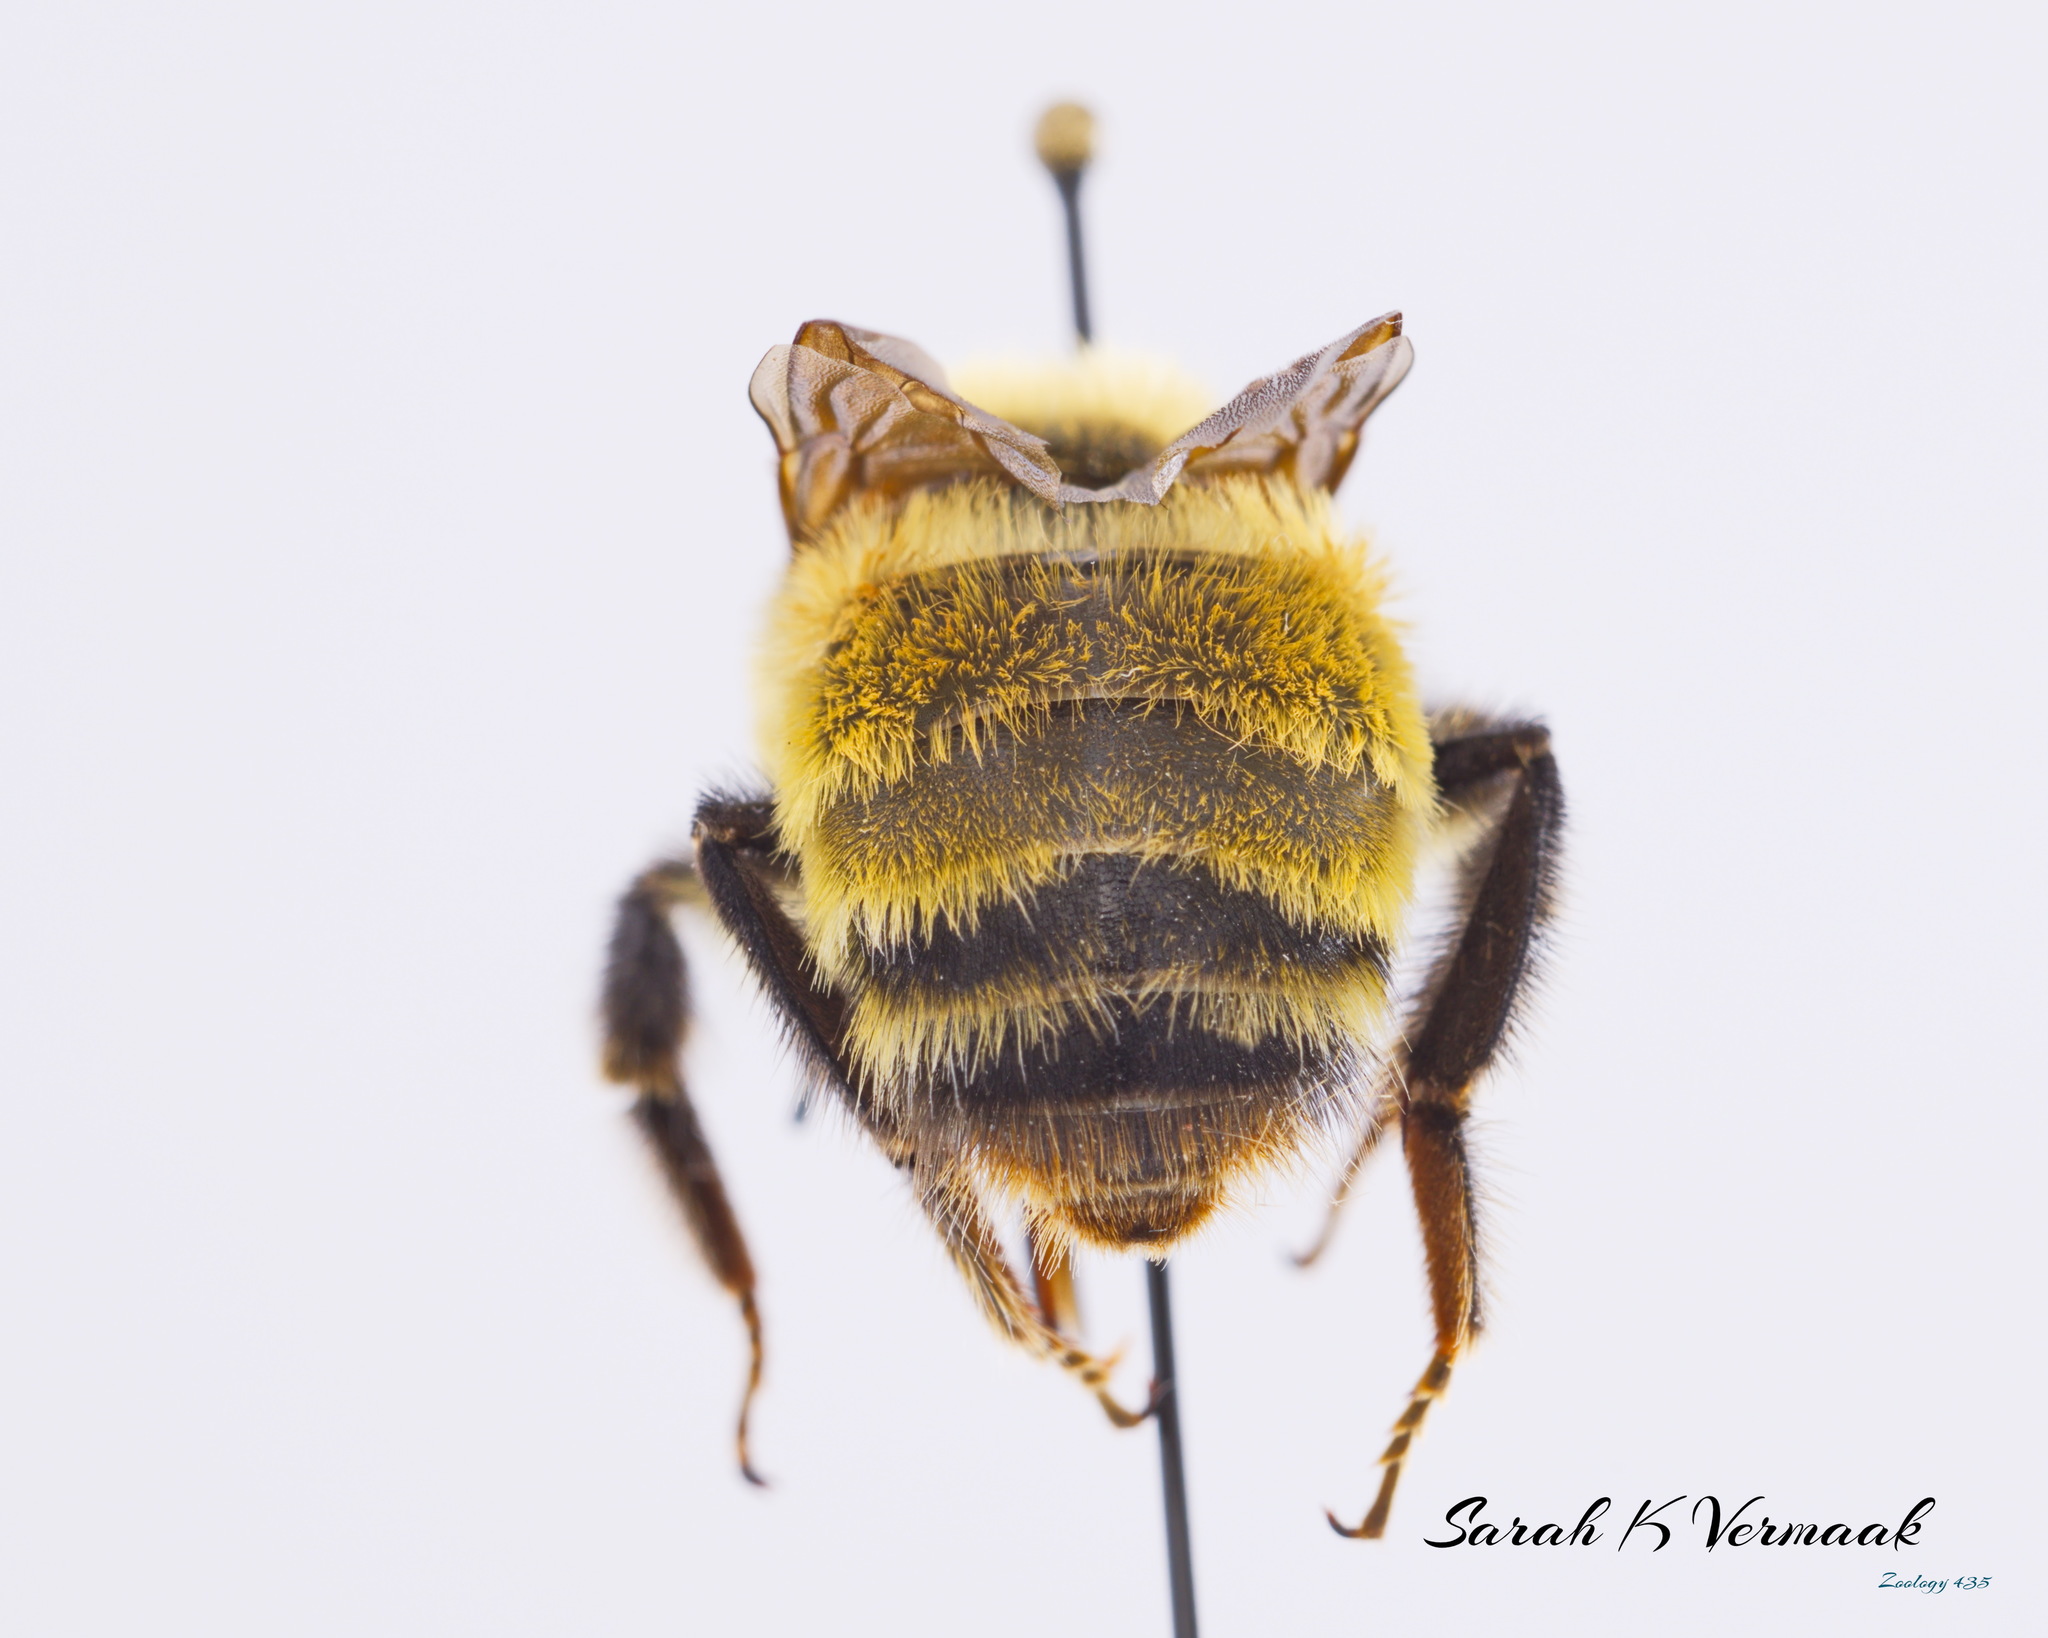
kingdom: Animalia
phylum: Arthropoda
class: Insecta
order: Hymenoptera
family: Apidae
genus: Bombus
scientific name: Bombus nevadensis
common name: Nevada bumble bee
